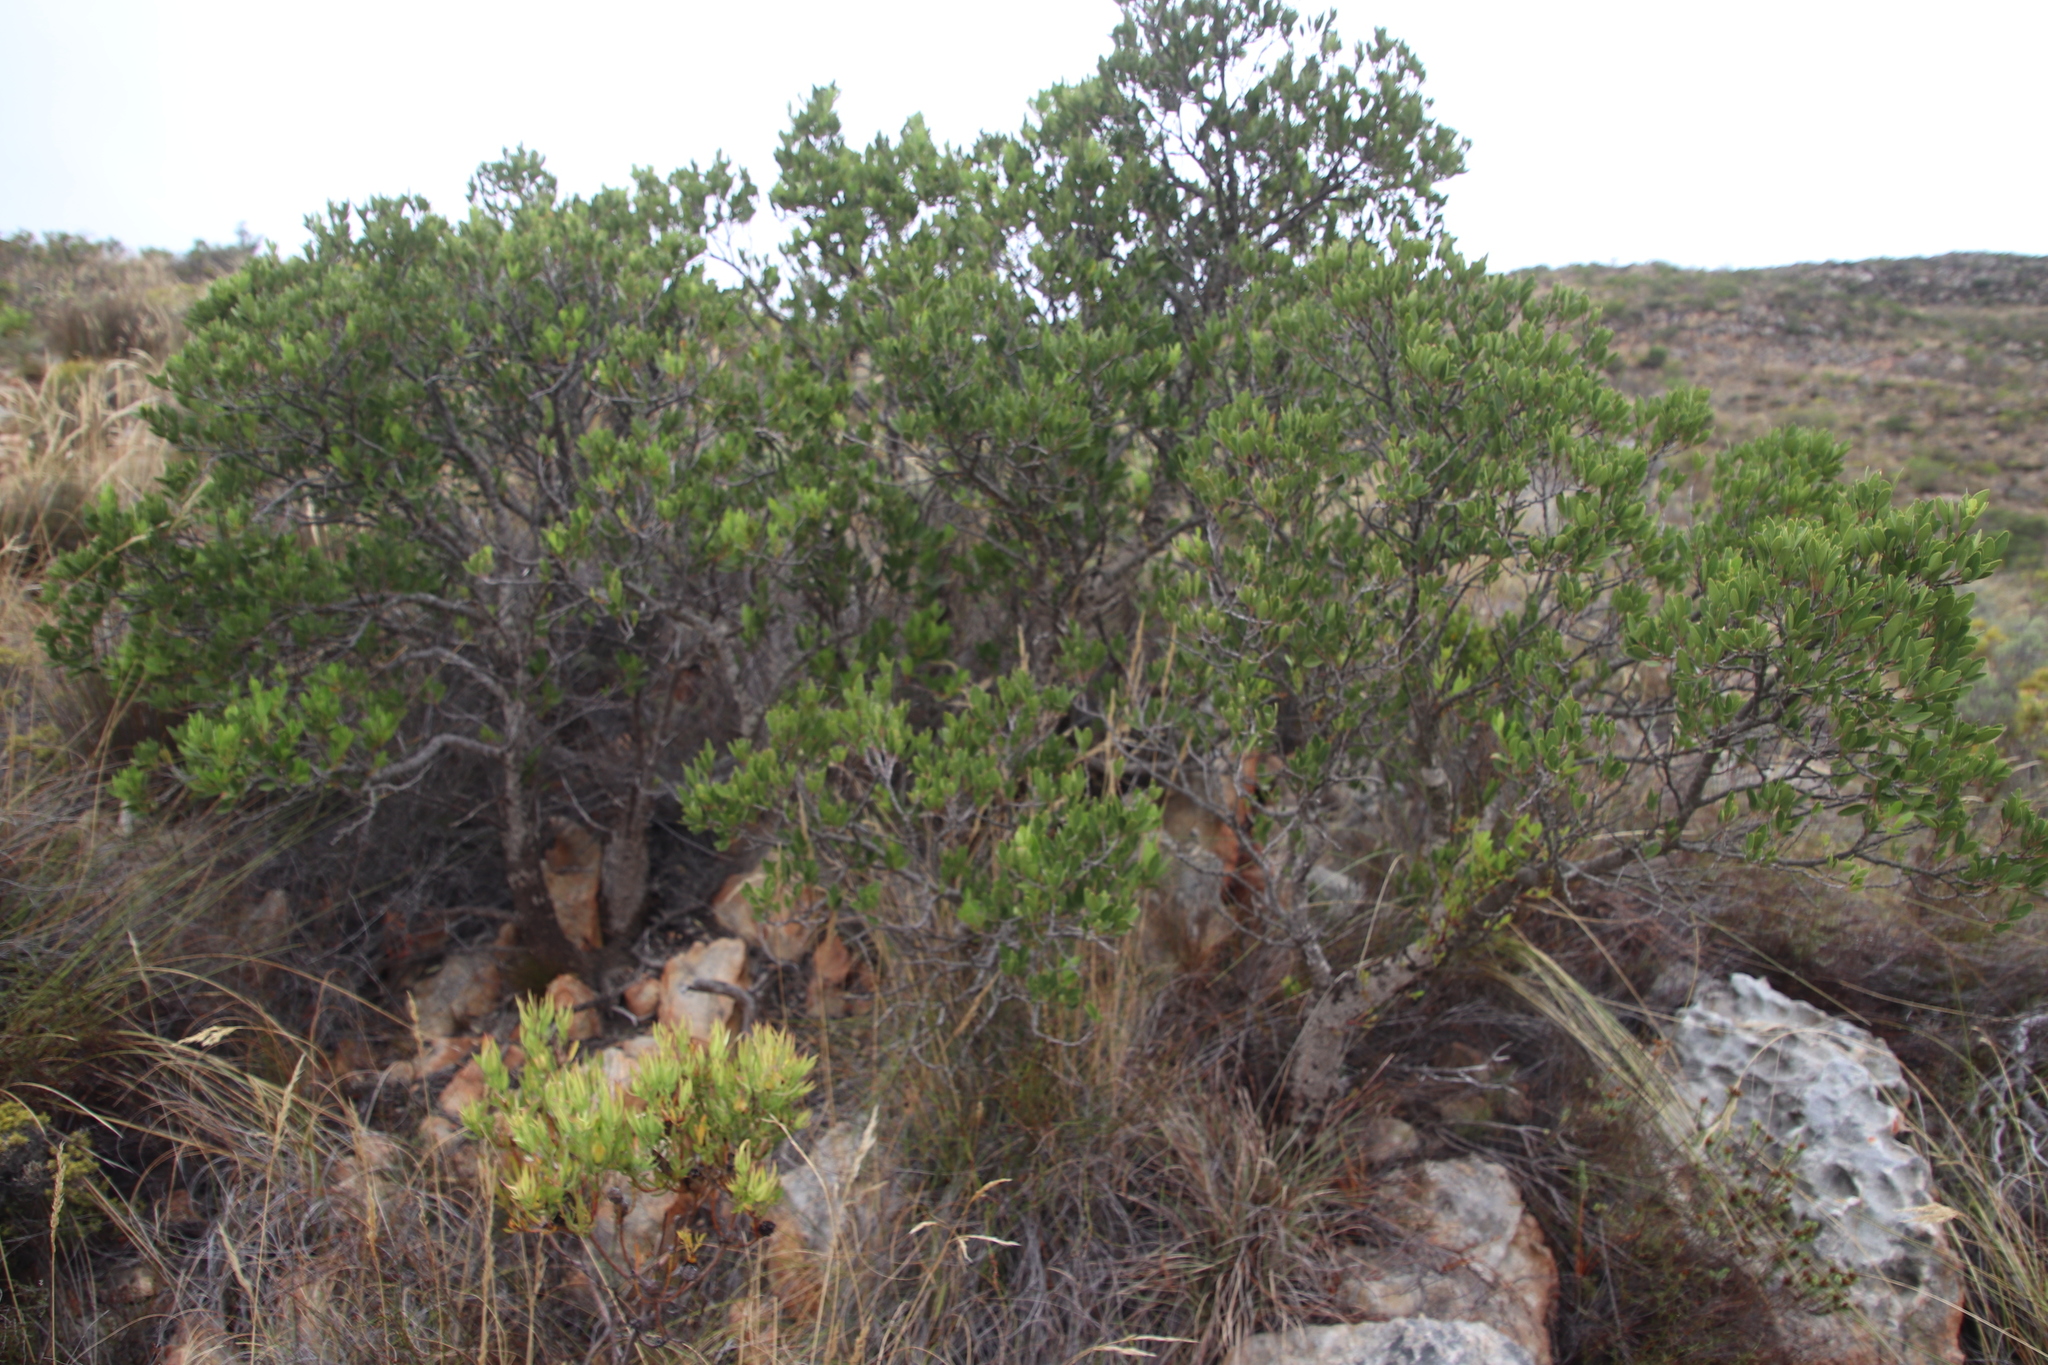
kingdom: Plantae
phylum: Tracheophyta
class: Magnoliopsida
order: Celastrales
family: Celastraceae
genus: Gymnosporia
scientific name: Gymnosporia laurina
